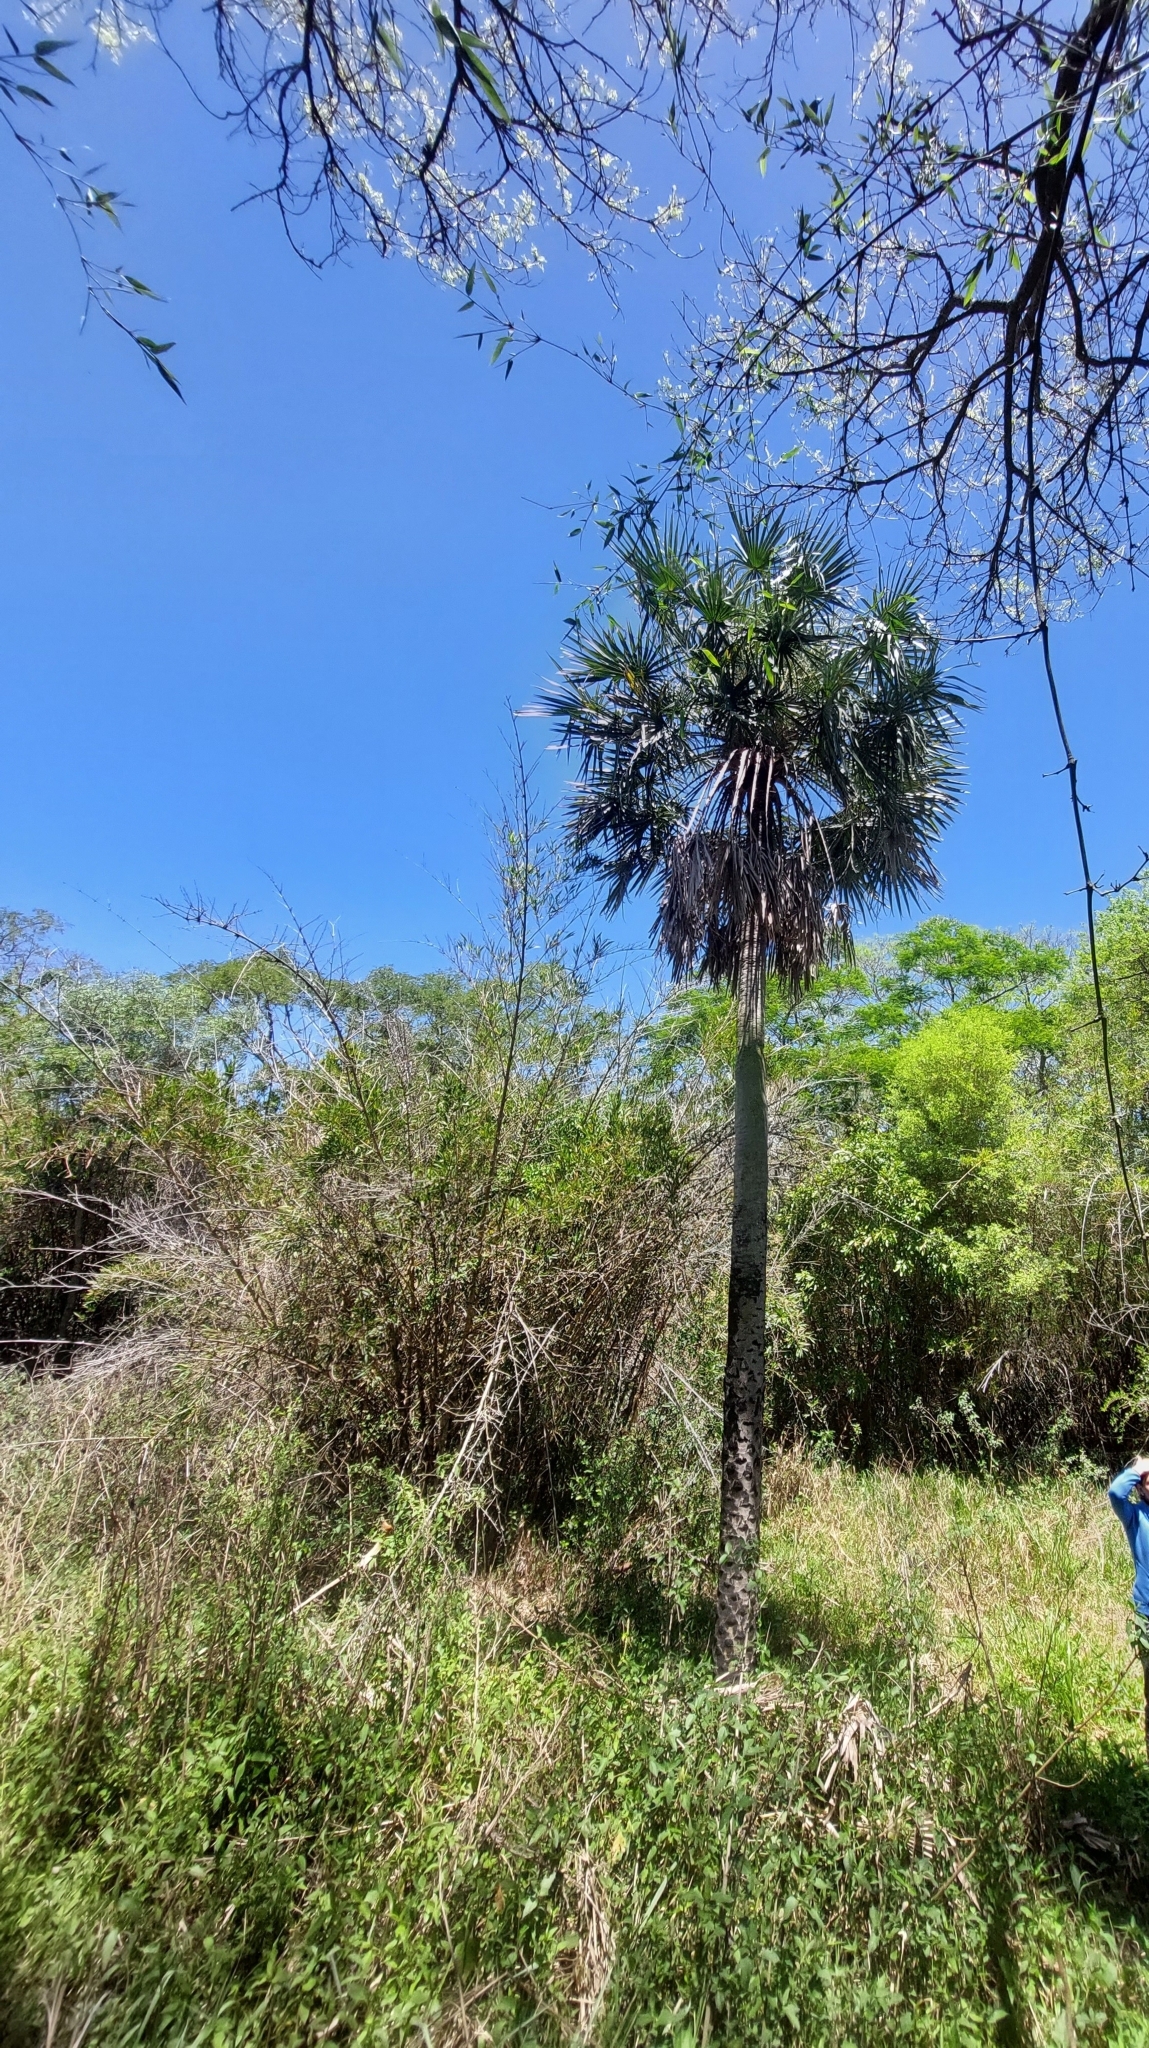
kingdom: Plantae
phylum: Tracheophyta
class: Liliopsida
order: Arecales
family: Arecaceae
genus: Copernicia
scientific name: Copernicia alba
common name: Caranday palm
